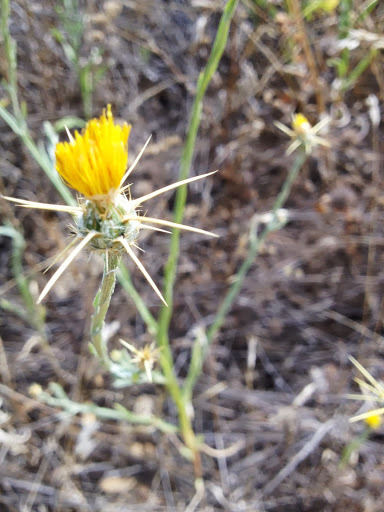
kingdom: Plantae
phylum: Tracheophyta
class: Magnoliopsida
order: Asterales
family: Asteraceae
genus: Centaurea
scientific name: Centaurea solstitialis
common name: Yellow star-thistle
